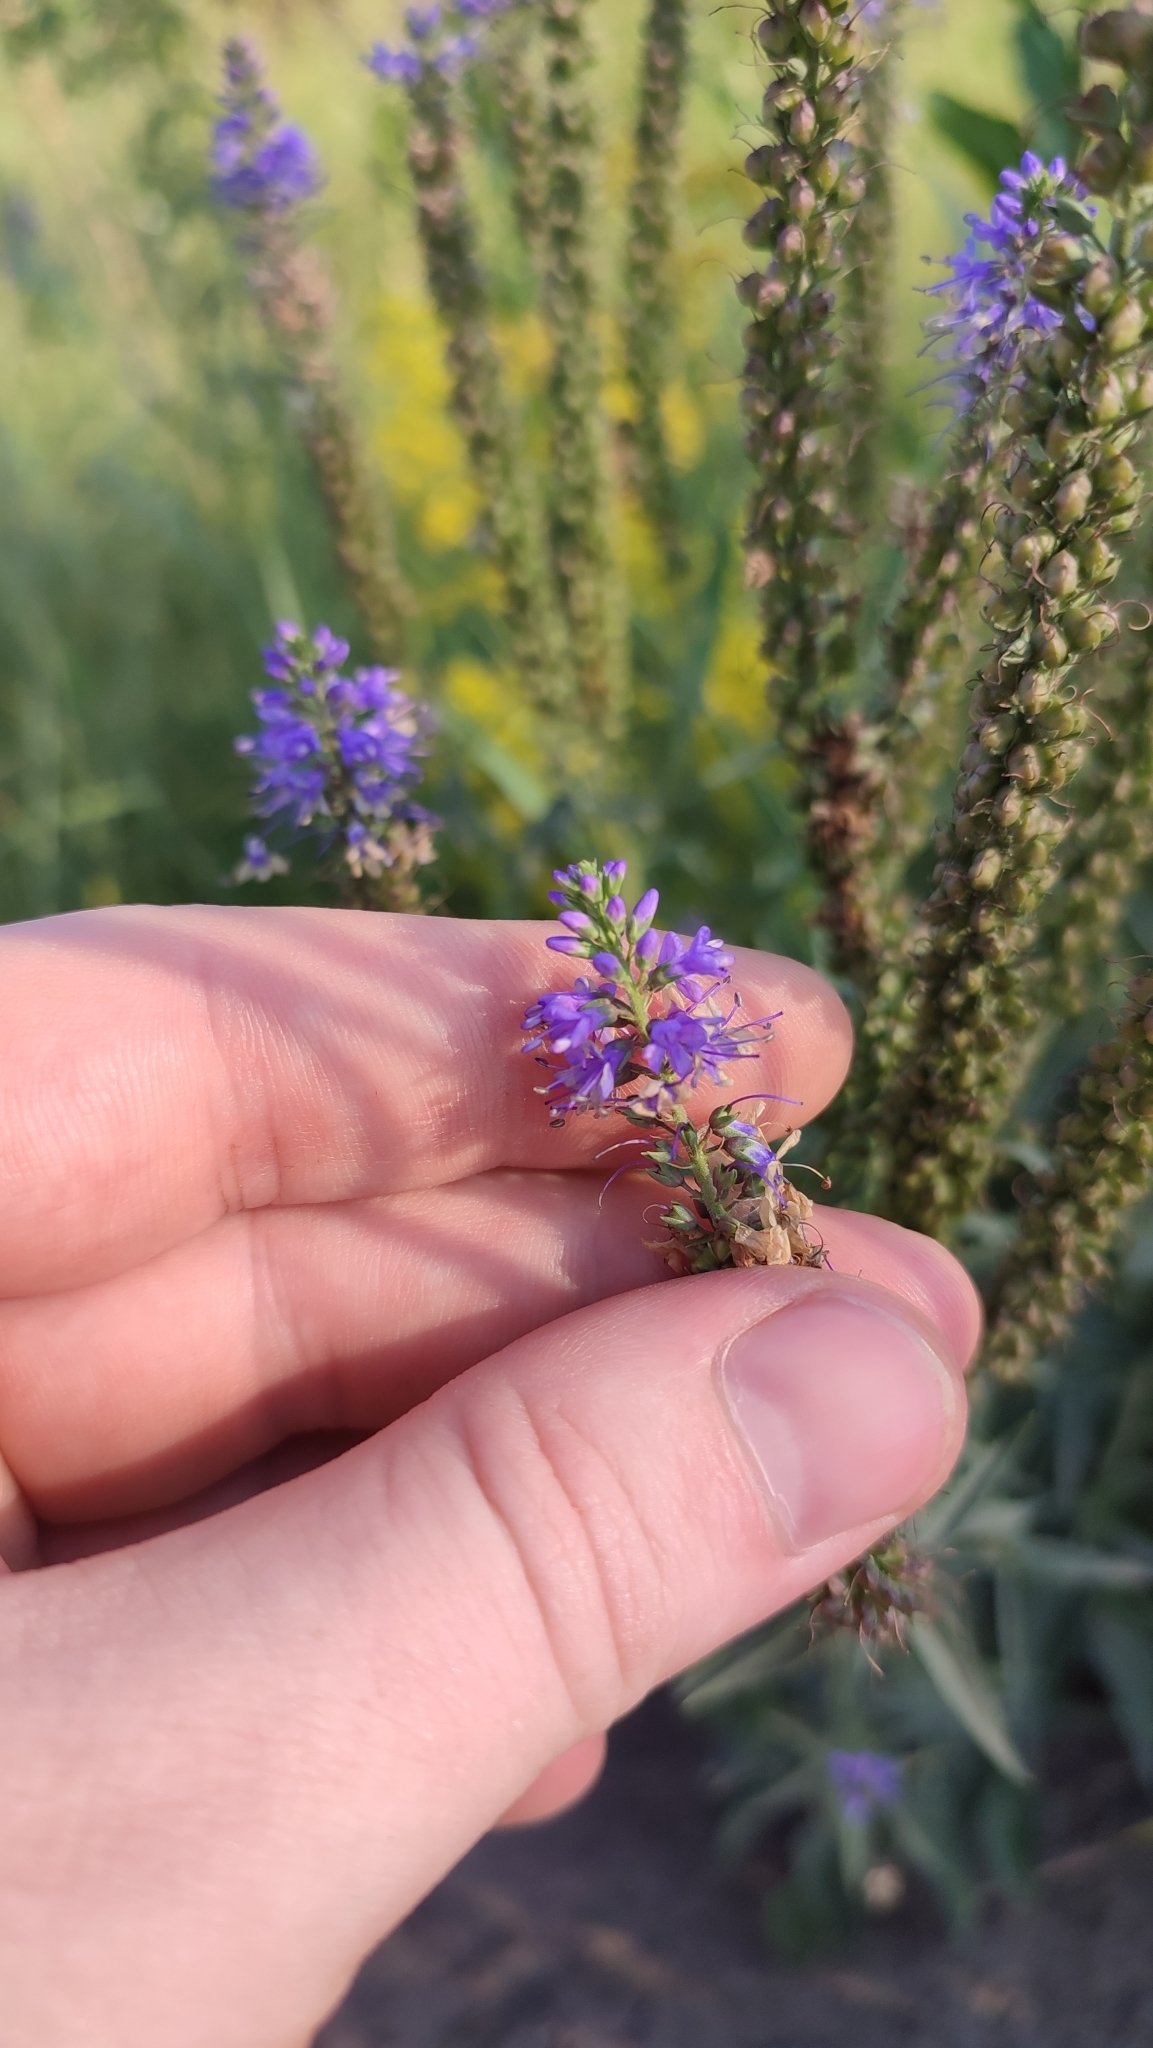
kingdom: Plantae
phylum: Tracheophyta
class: Magnoliopsida
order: Lamiales
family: Plantaginaceae
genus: Veronica
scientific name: Veronica longifolia
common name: Garden speedwell
